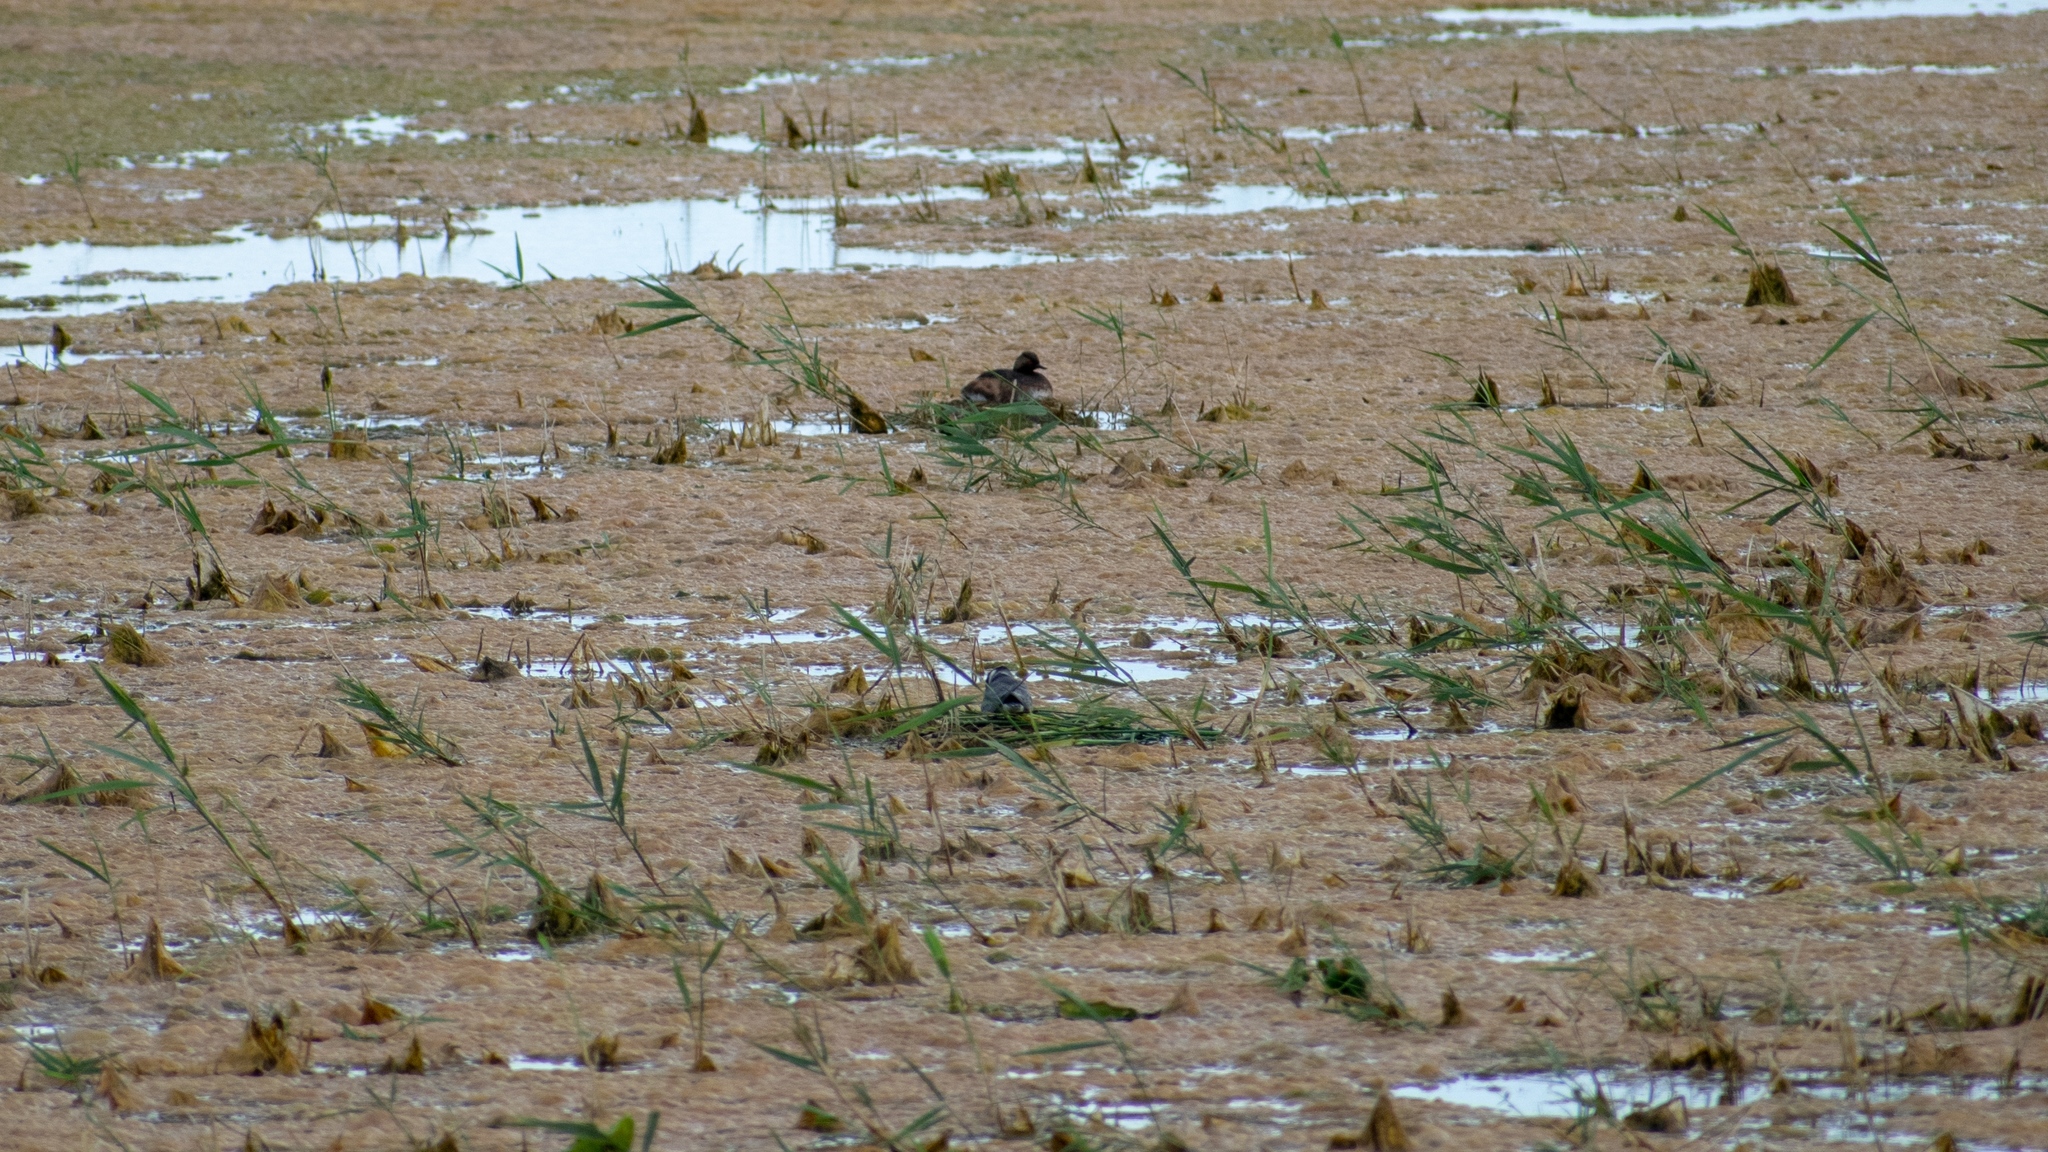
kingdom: Animalia
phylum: Chordata
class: Aves
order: Podicipediformes
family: Podicipedidae
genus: Podiceps
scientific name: Podiceps nigricollis
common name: Black-necked grebe
